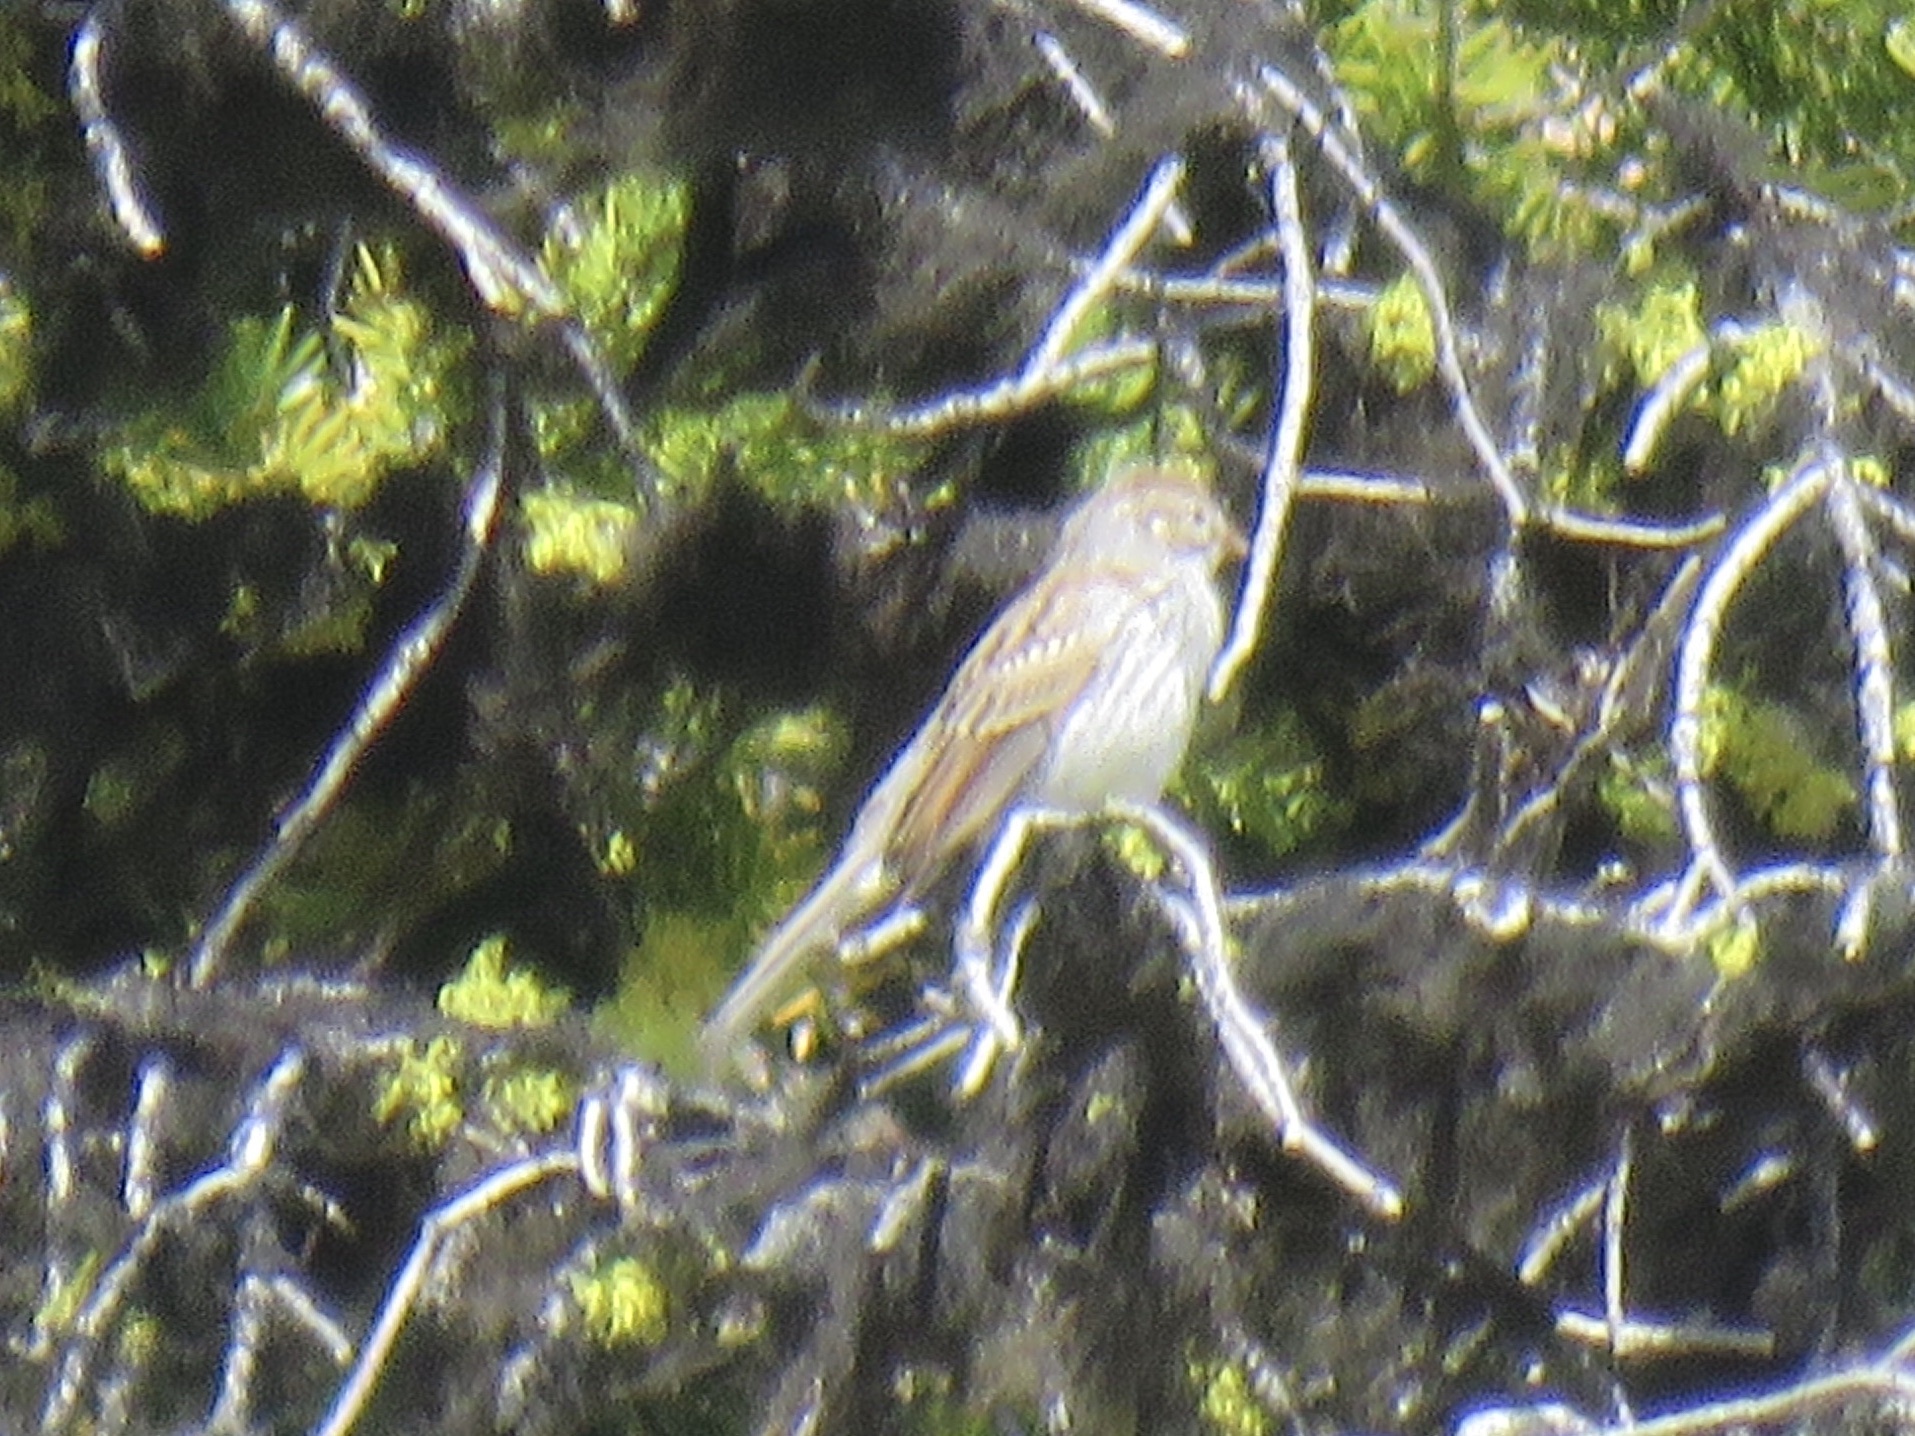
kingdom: Animalia
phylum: Chordata
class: Aves
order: Passeriformes
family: Passerellidae
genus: Spizella
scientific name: Spizella passerina
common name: Chipping sparrow
